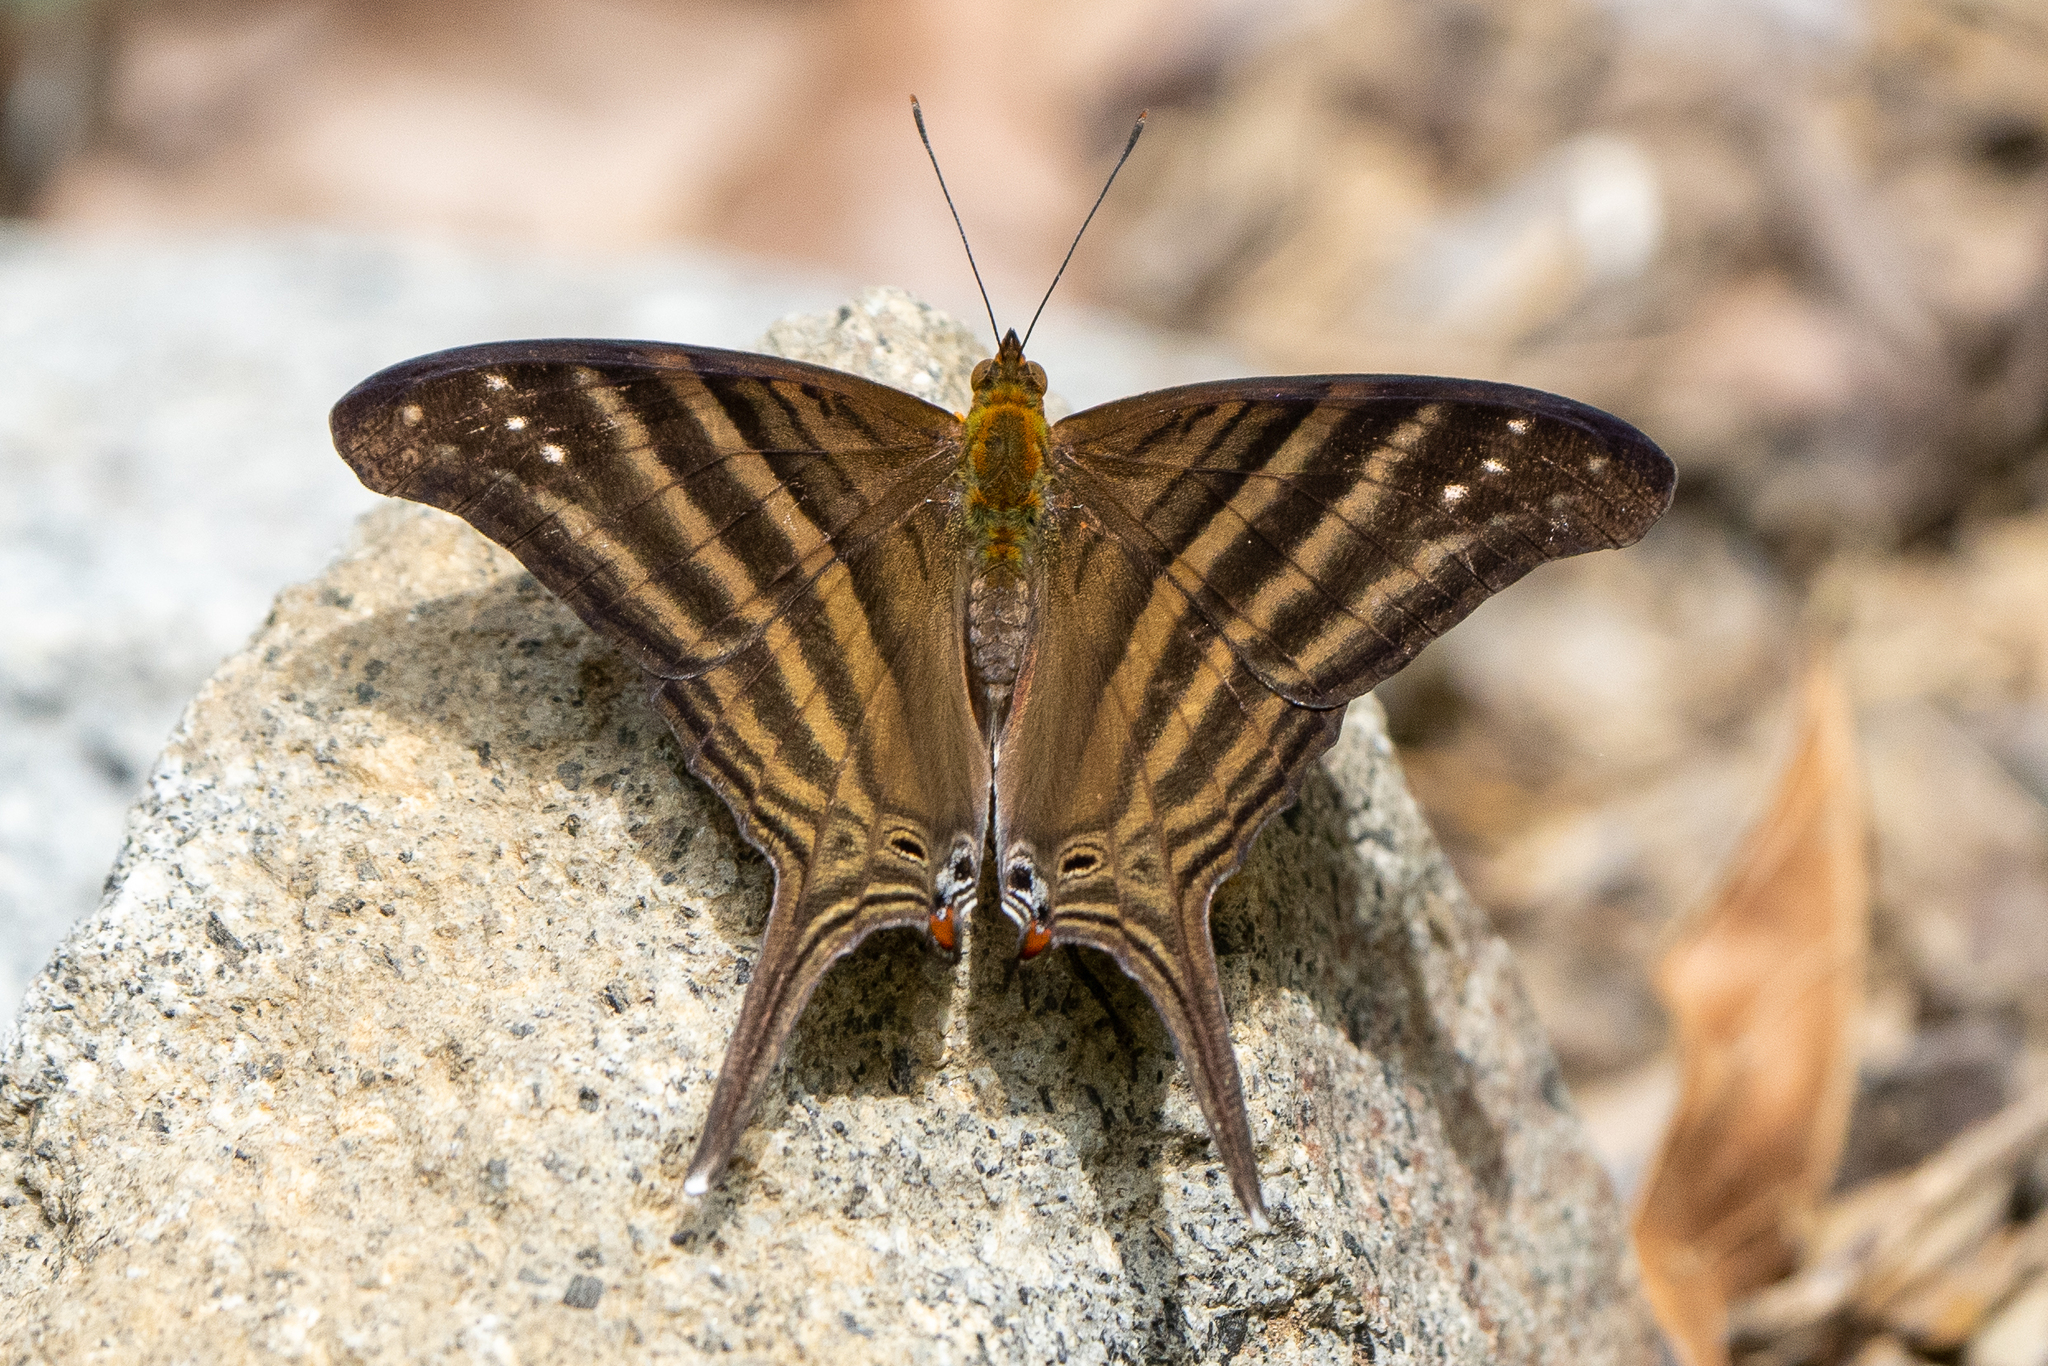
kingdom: Animalia
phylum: Arthropoda
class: Insecta
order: Lepidoptera
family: Nymphalidae
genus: Marpesia
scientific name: Marpesia chiron
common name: Many-banded daggerwing
